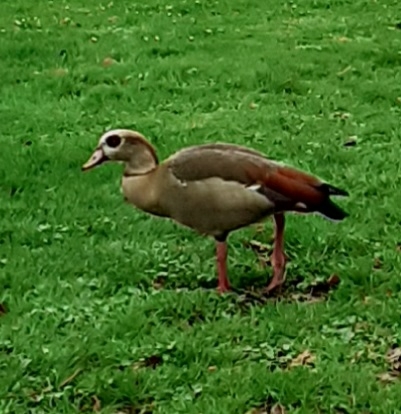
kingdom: Animalia
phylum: Chordata
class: Aves
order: Anseriformes
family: Anatidae
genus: Alopochen
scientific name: Alopochen aegyptiaca
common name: Egyptian goose
